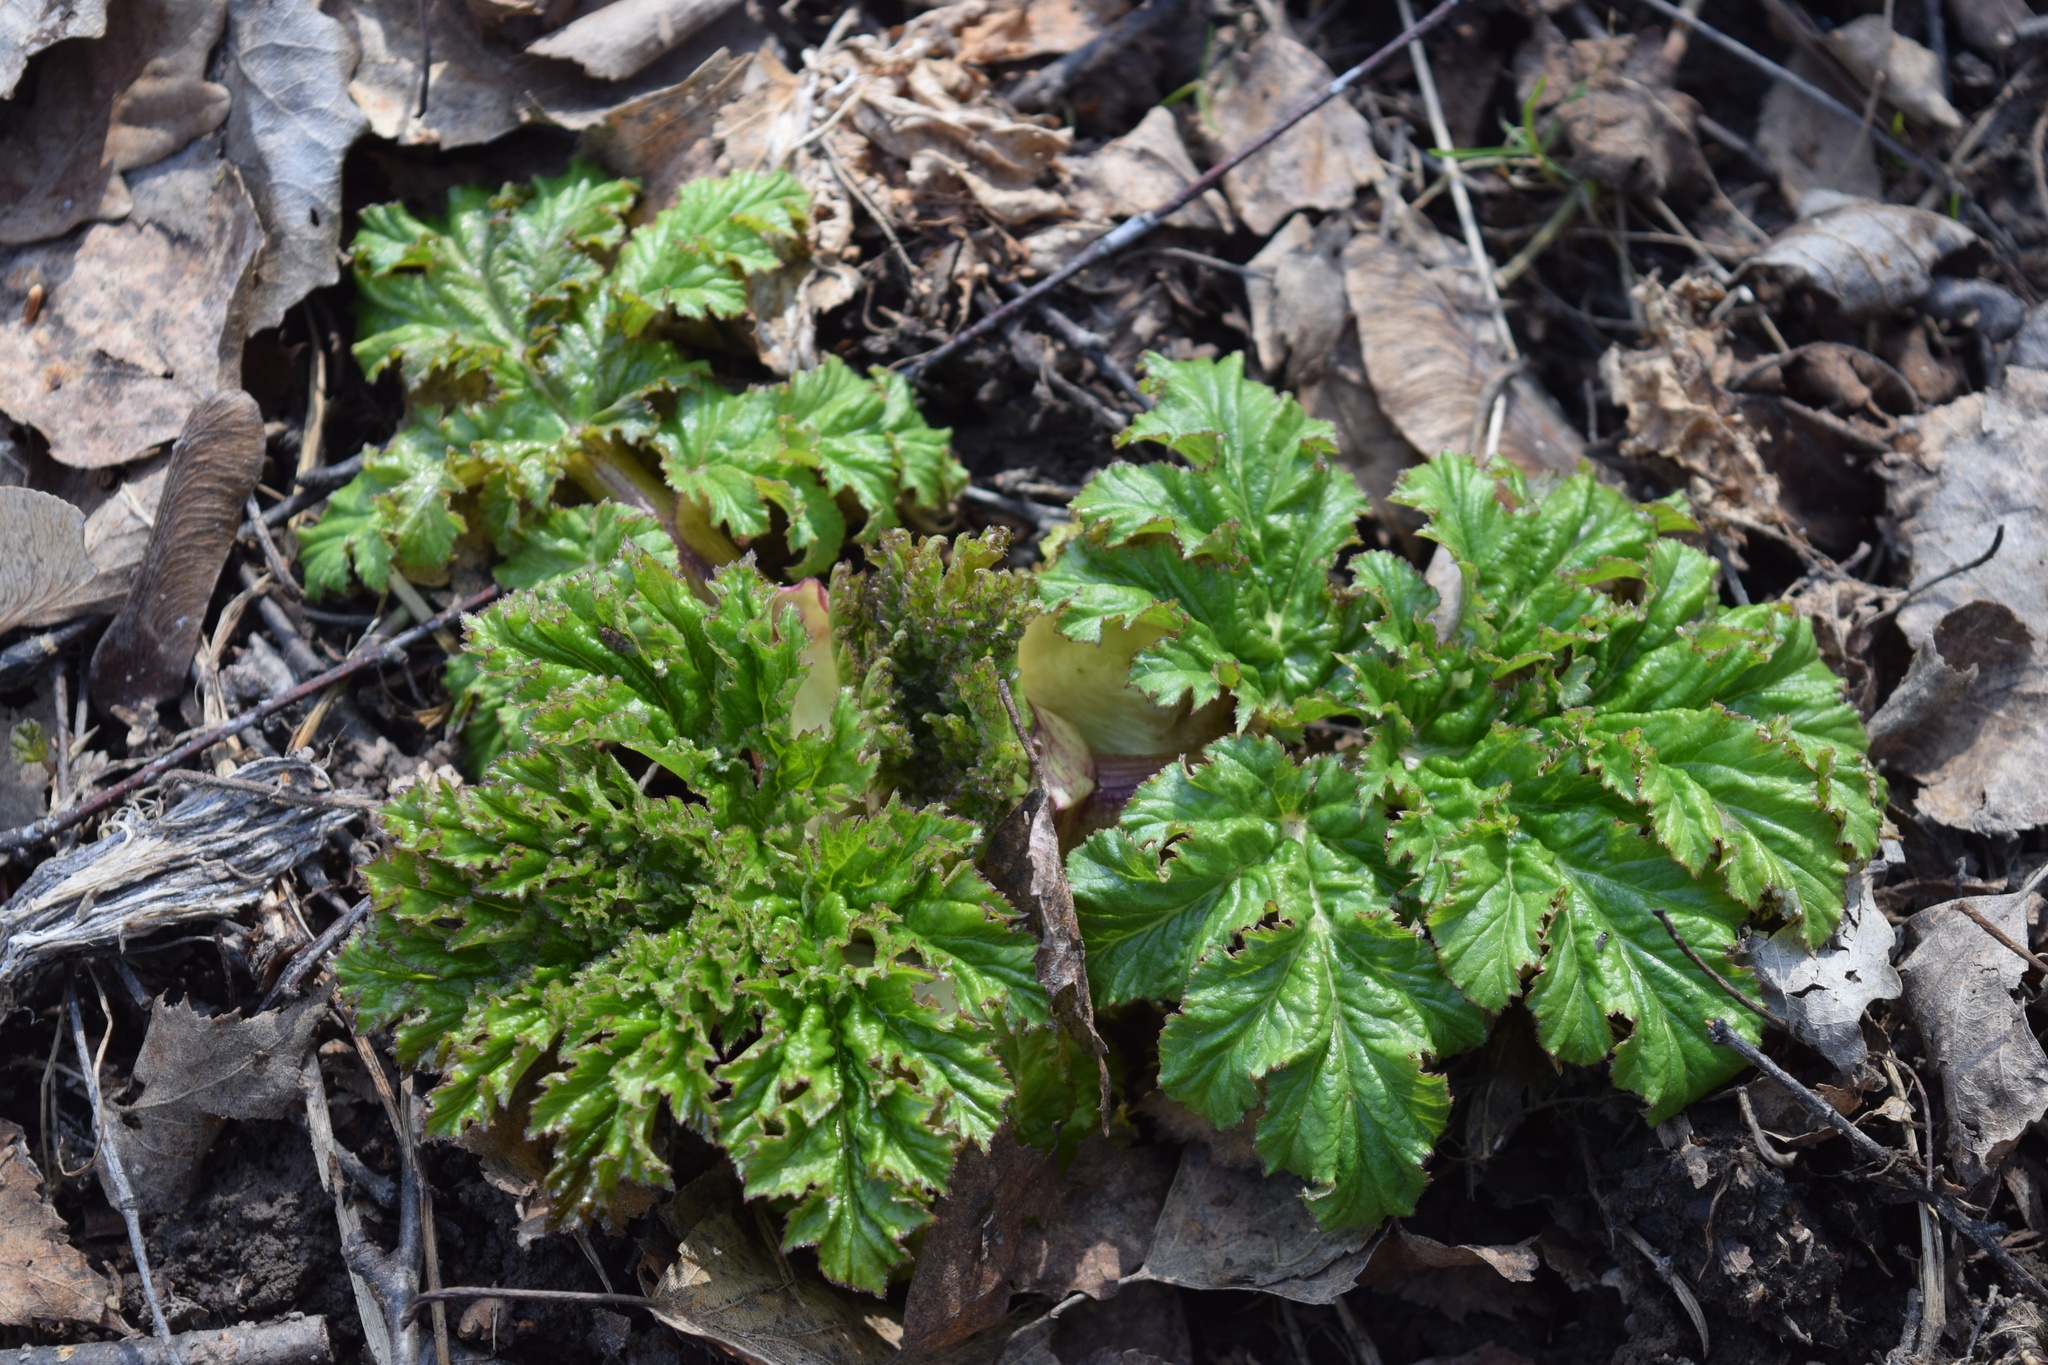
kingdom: Plantae
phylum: Tracheophyta
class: Magnoliopsida
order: Apiales
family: Apiaceae
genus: Heracleum
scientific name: Heracleum sosnowskyi
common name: Sosnowsky's hogweed
